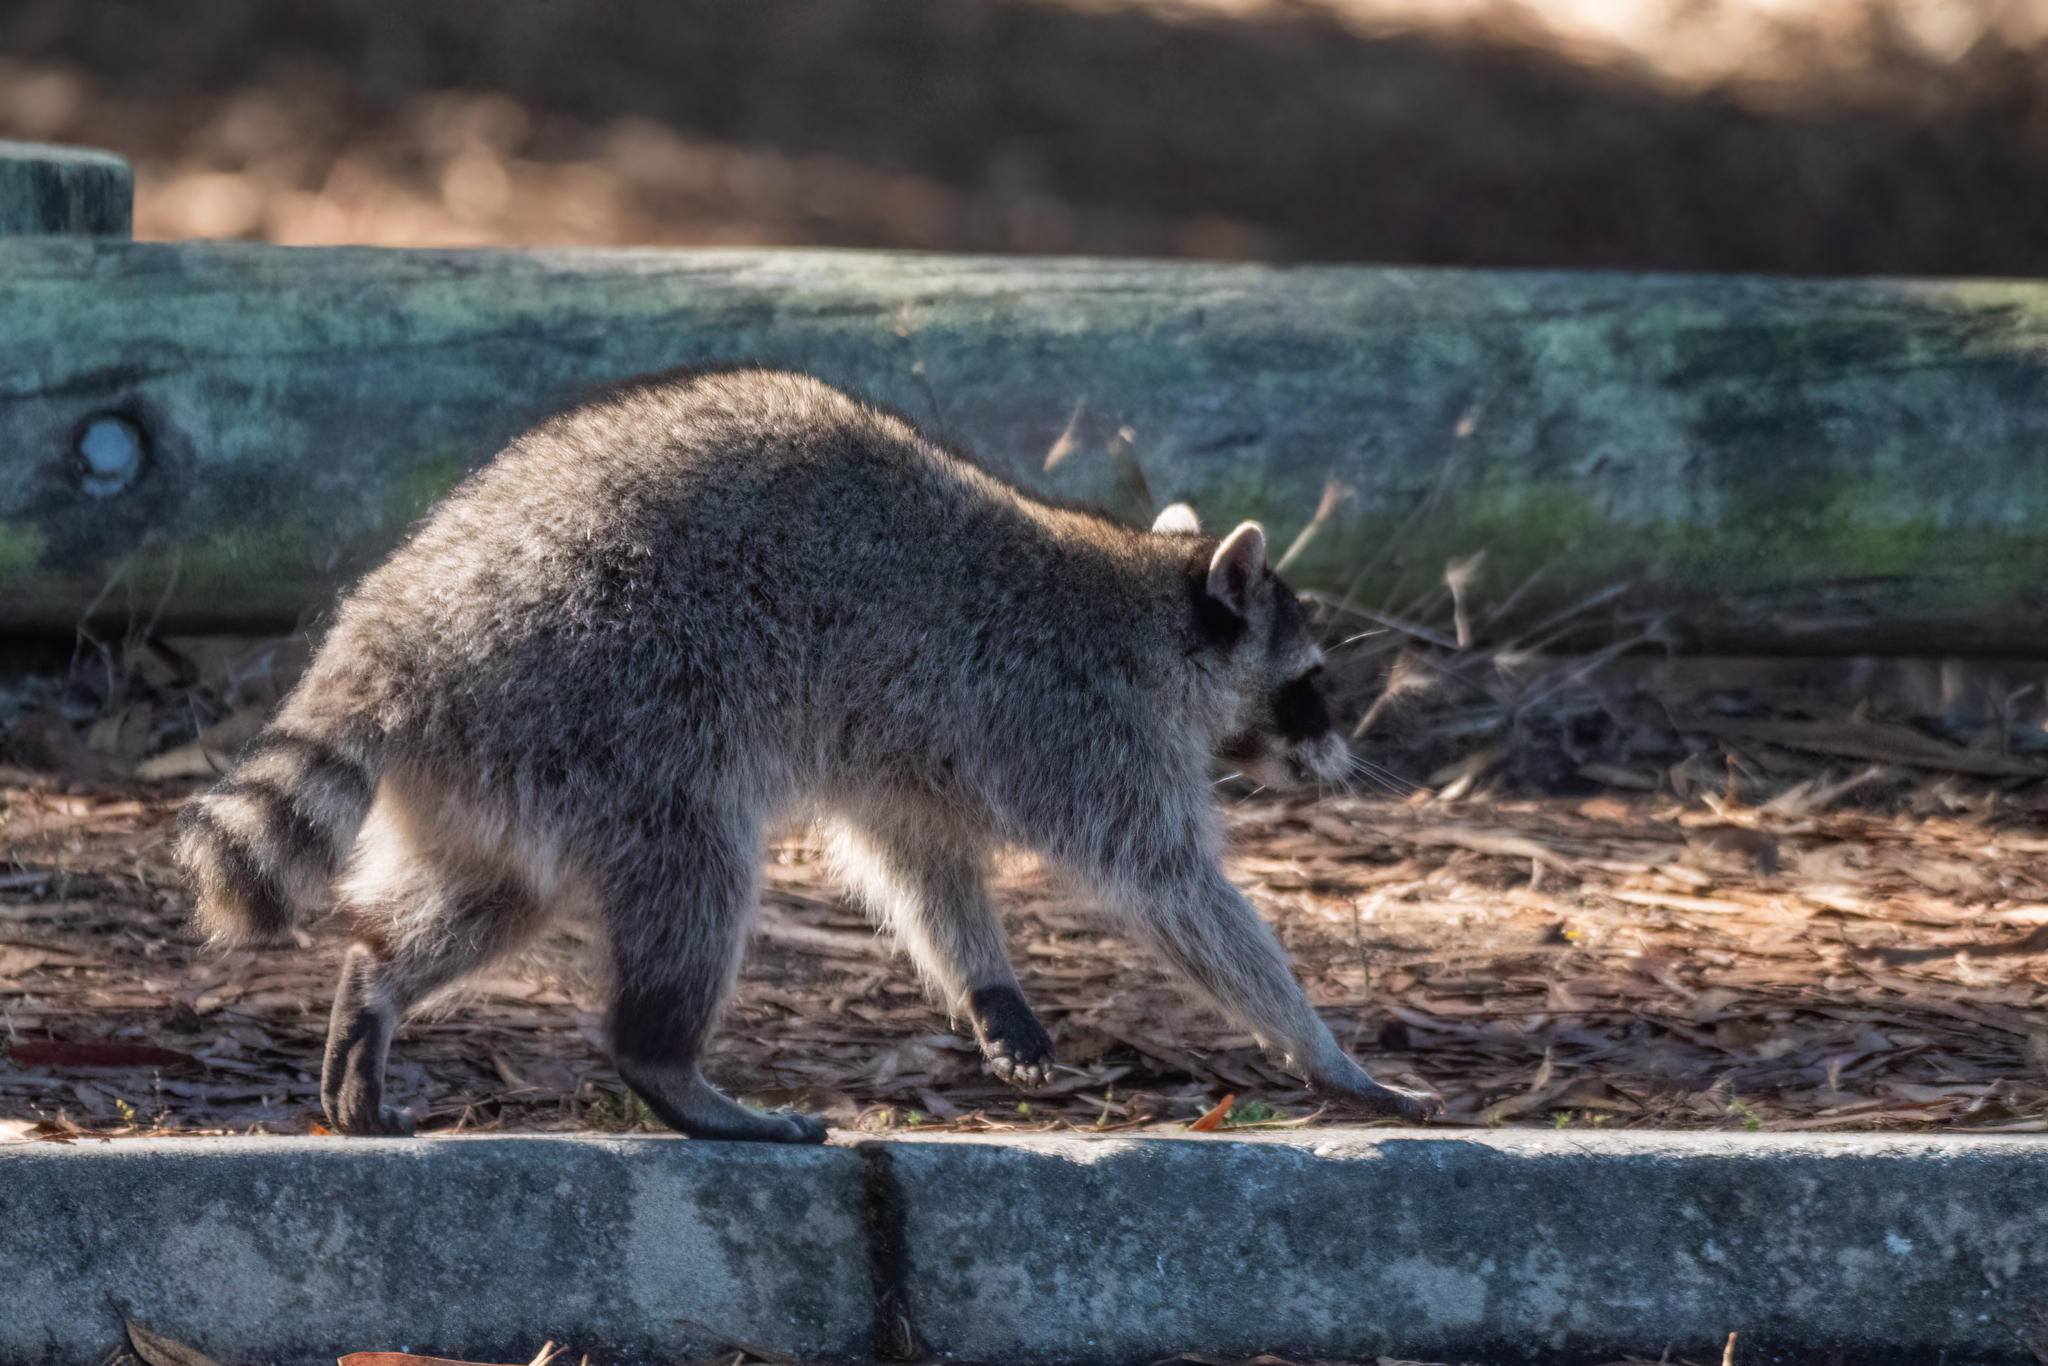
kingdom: Animalia
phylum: Chordata
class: Mammalia
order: Carnivora
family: Procyonidae
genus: Procyon
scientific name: Procyon lotor
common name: Raccoon
